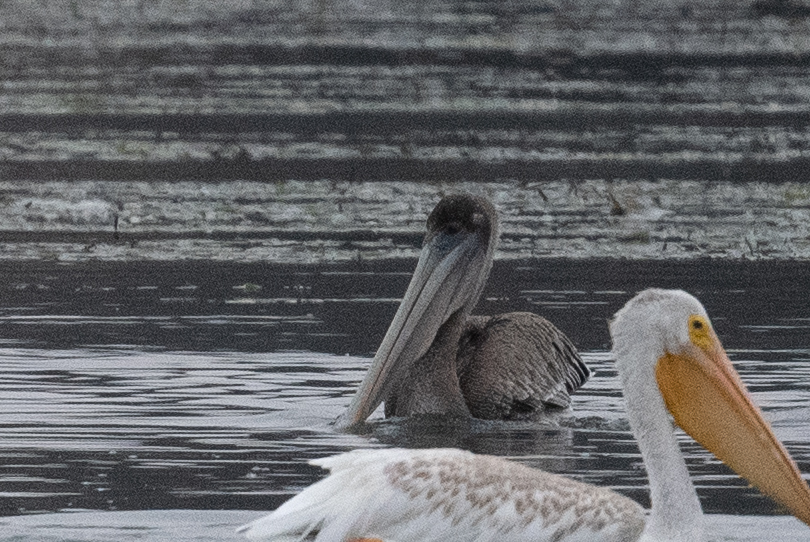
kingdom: Animalia
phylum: Chordata
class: Aves
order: Pelecaniformes
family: Pelecanidae
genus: Pelecanus
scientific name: Pelecanus occidentalis
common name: Brown pelican
